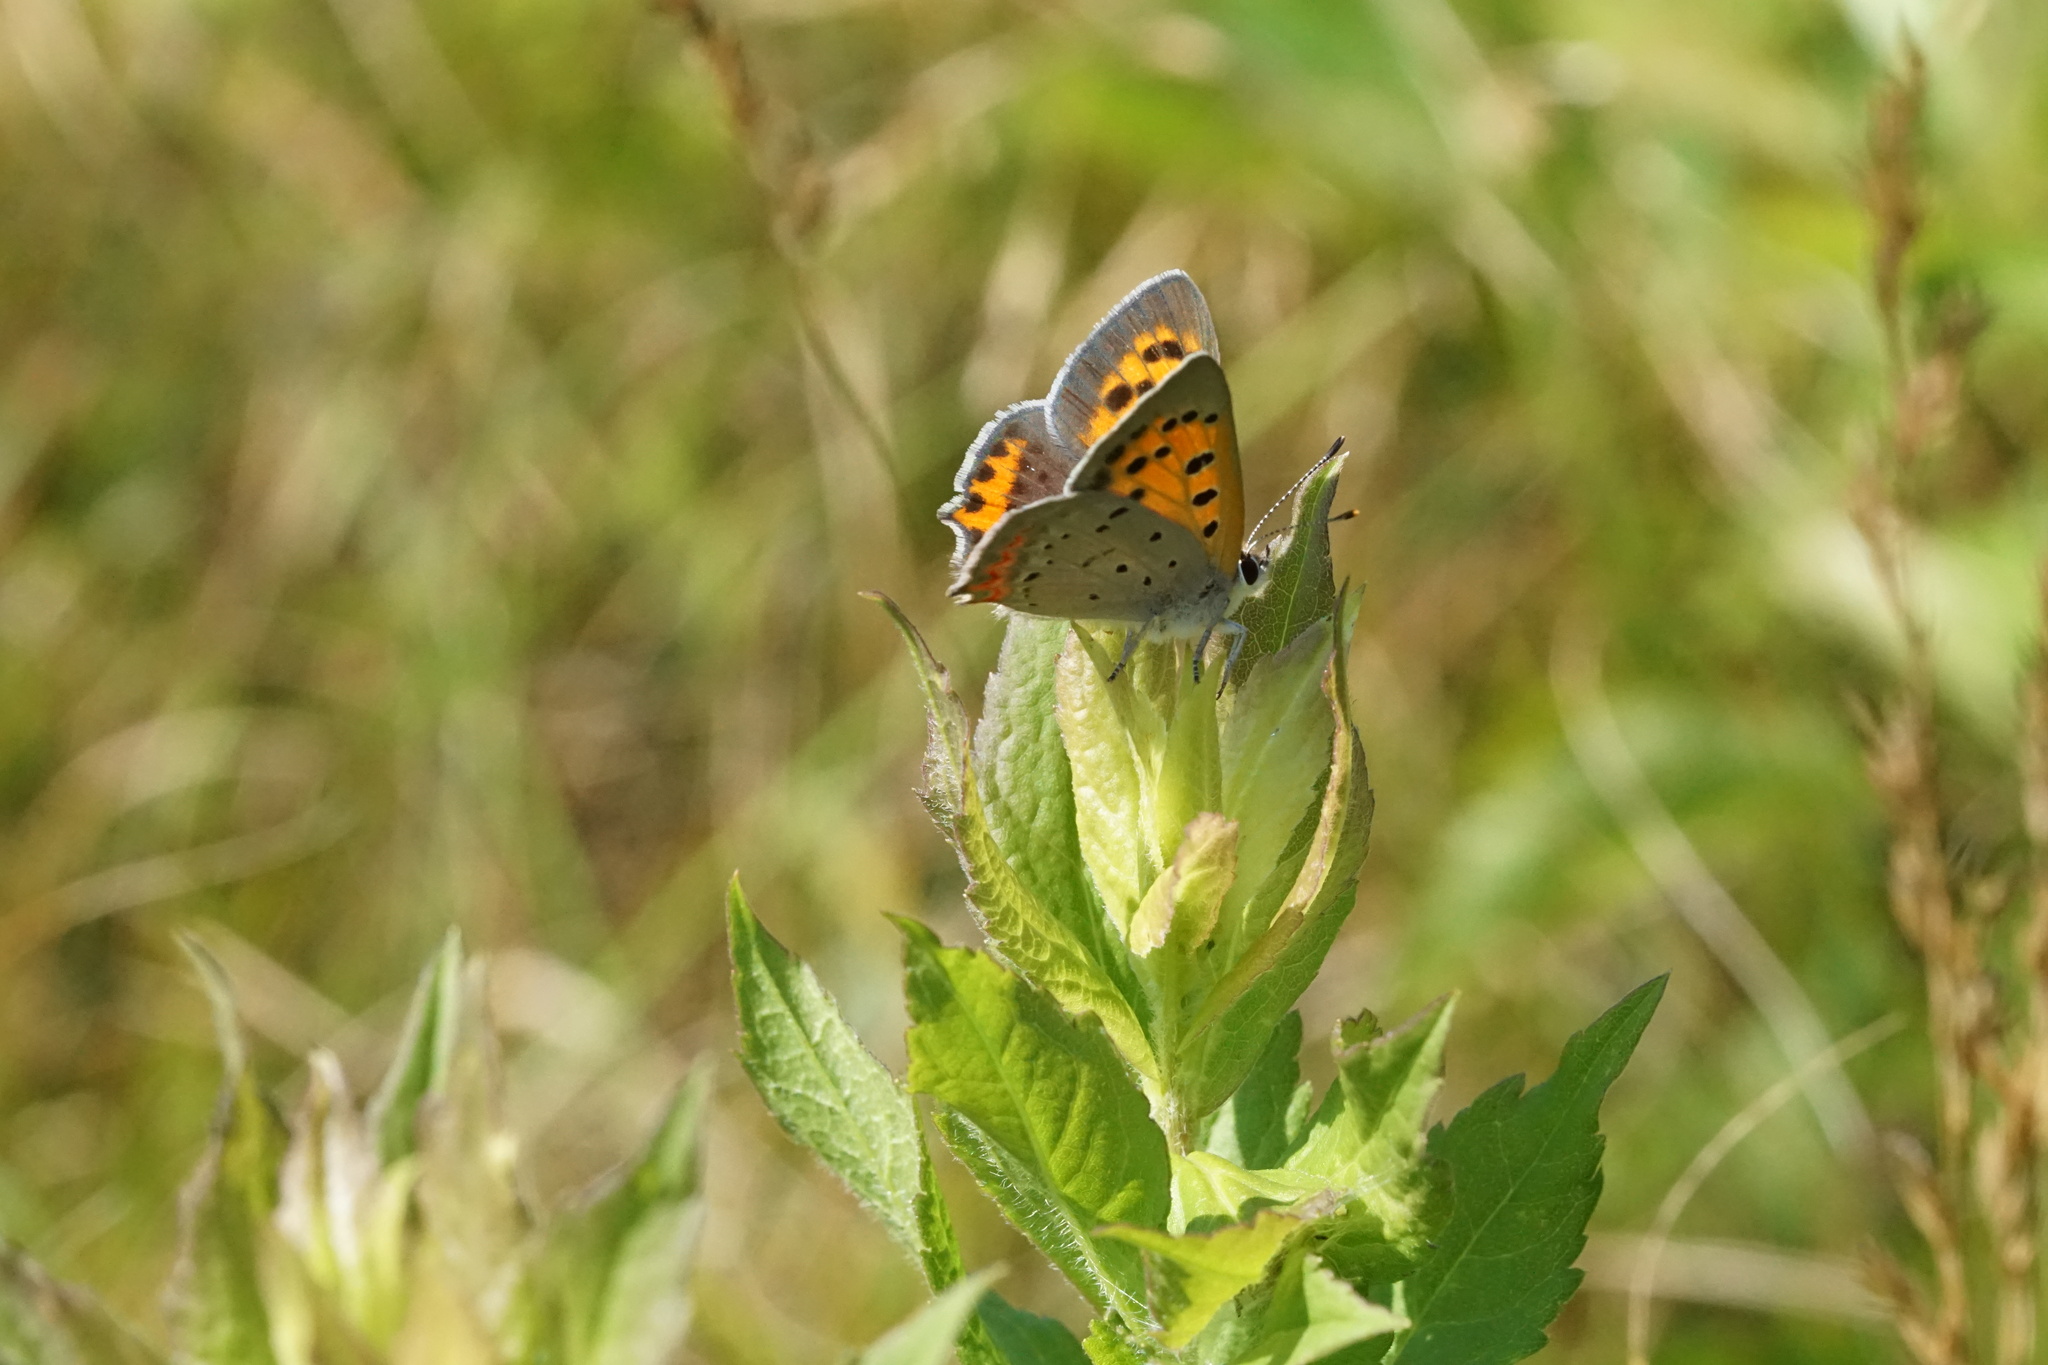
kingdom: Animalia
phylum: Arthropoda
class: Insecta
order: Lepidoptera
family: Lycaenidae
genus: Lycaena
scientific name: Lycaena hypophlaeas
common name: American copper
